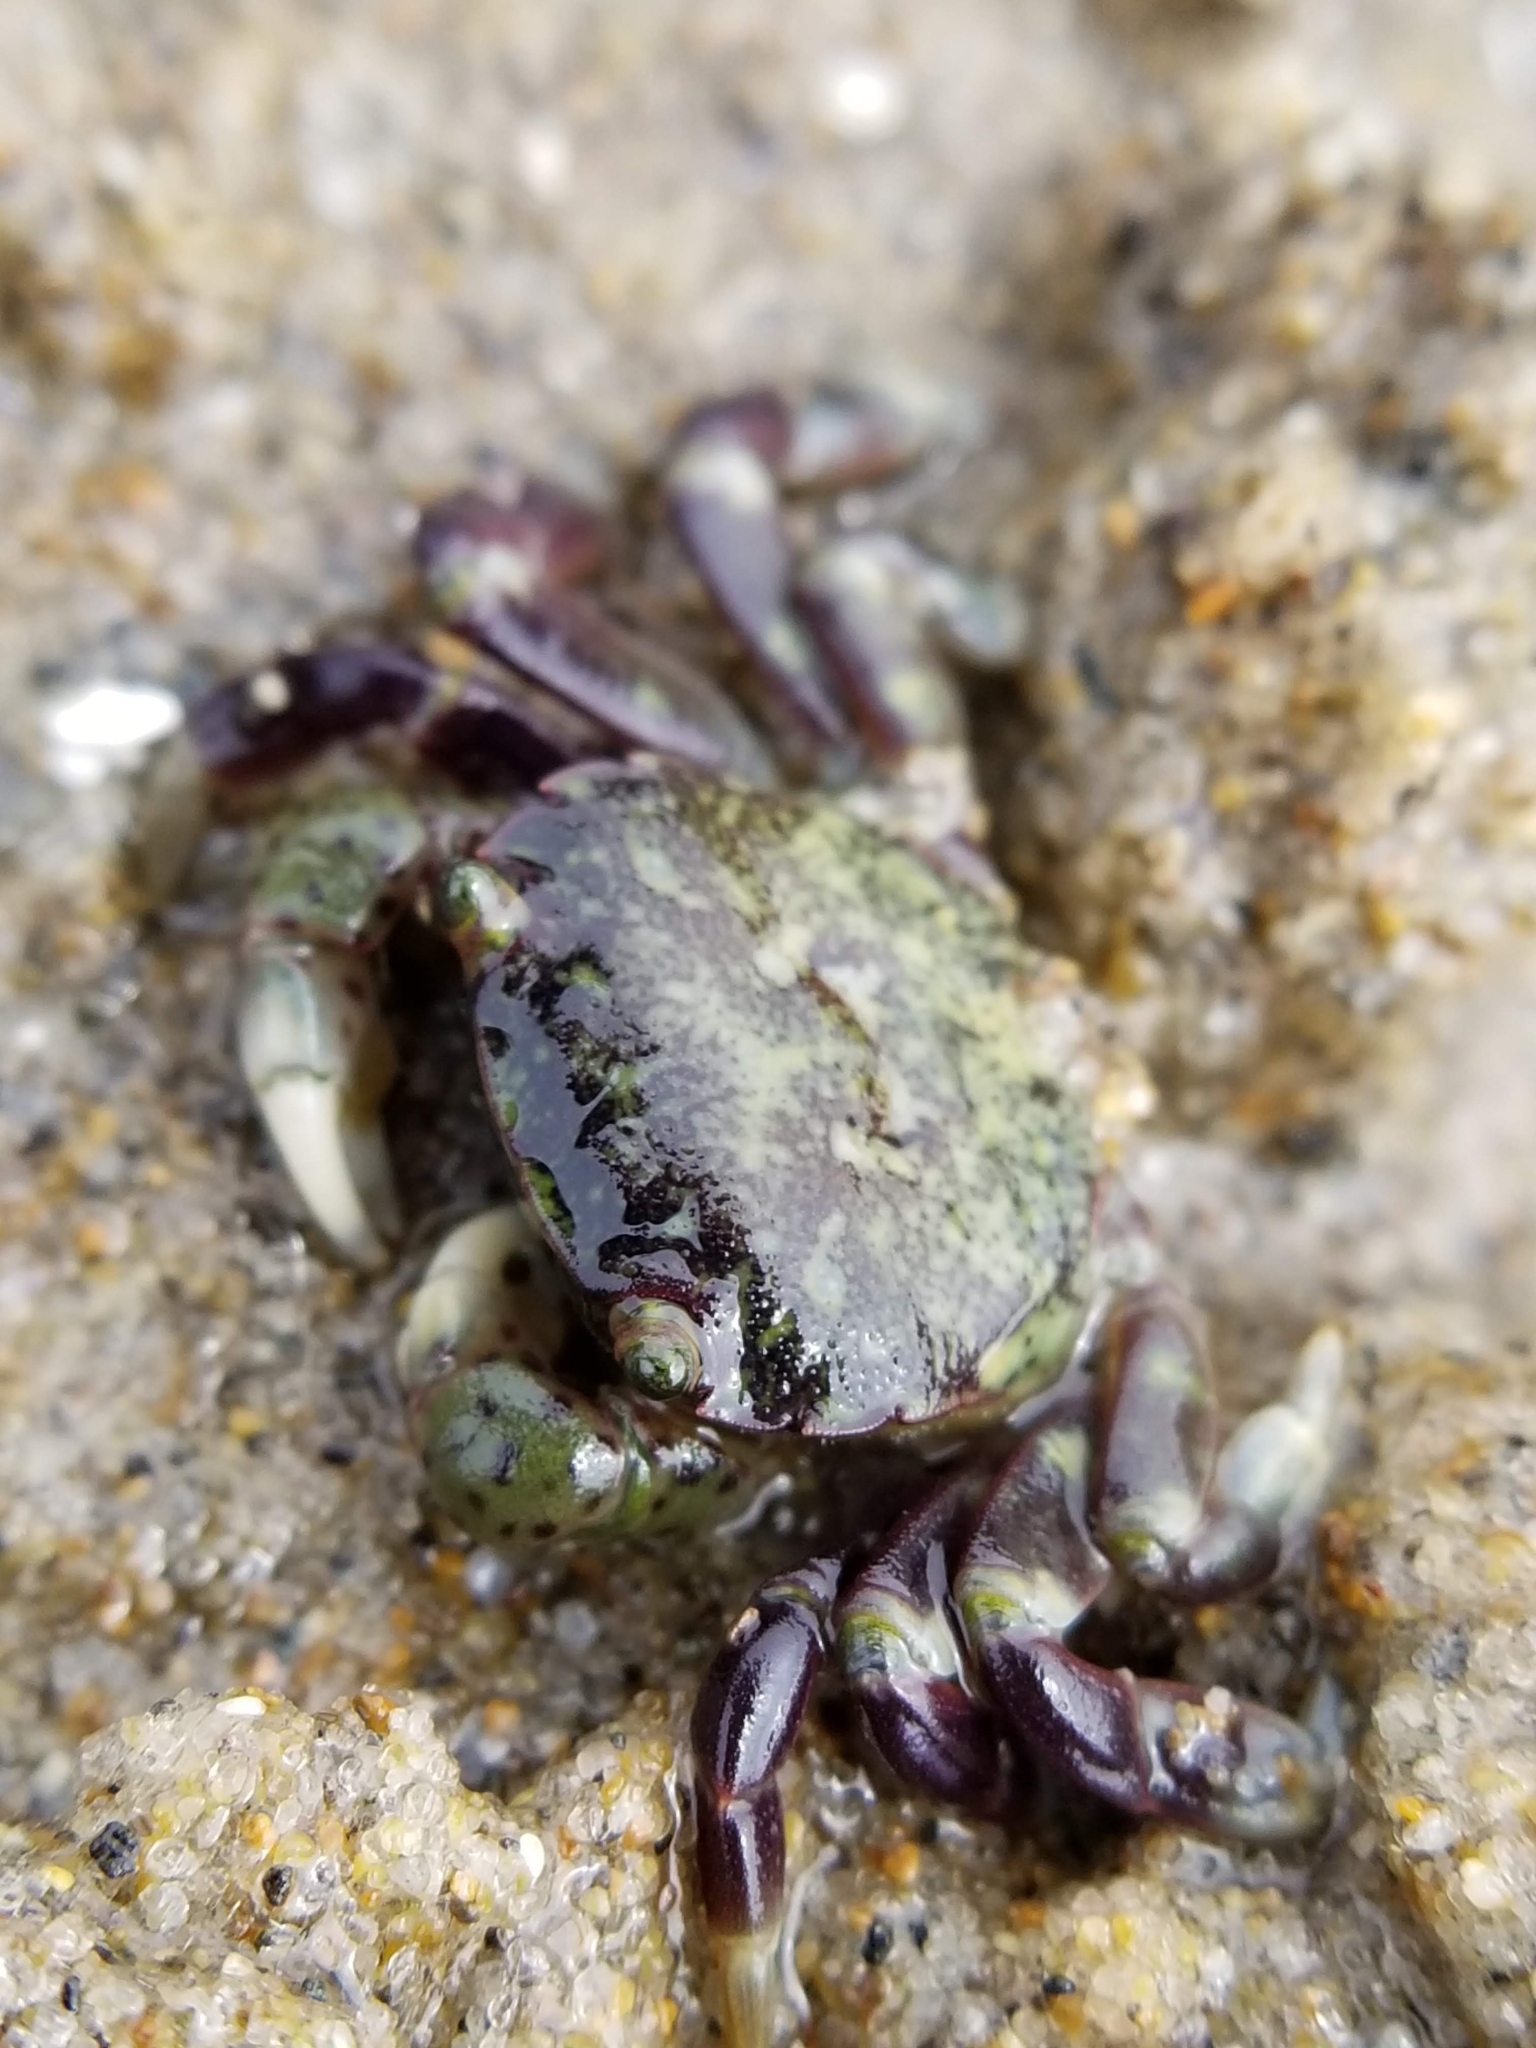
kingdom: Animalia
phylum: Arthropoda
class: Malacostraca
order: Decapoda
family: Varunidae
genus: Hemigrapsus
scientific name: Hemigrapsus nudus
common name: Purple shore crab
